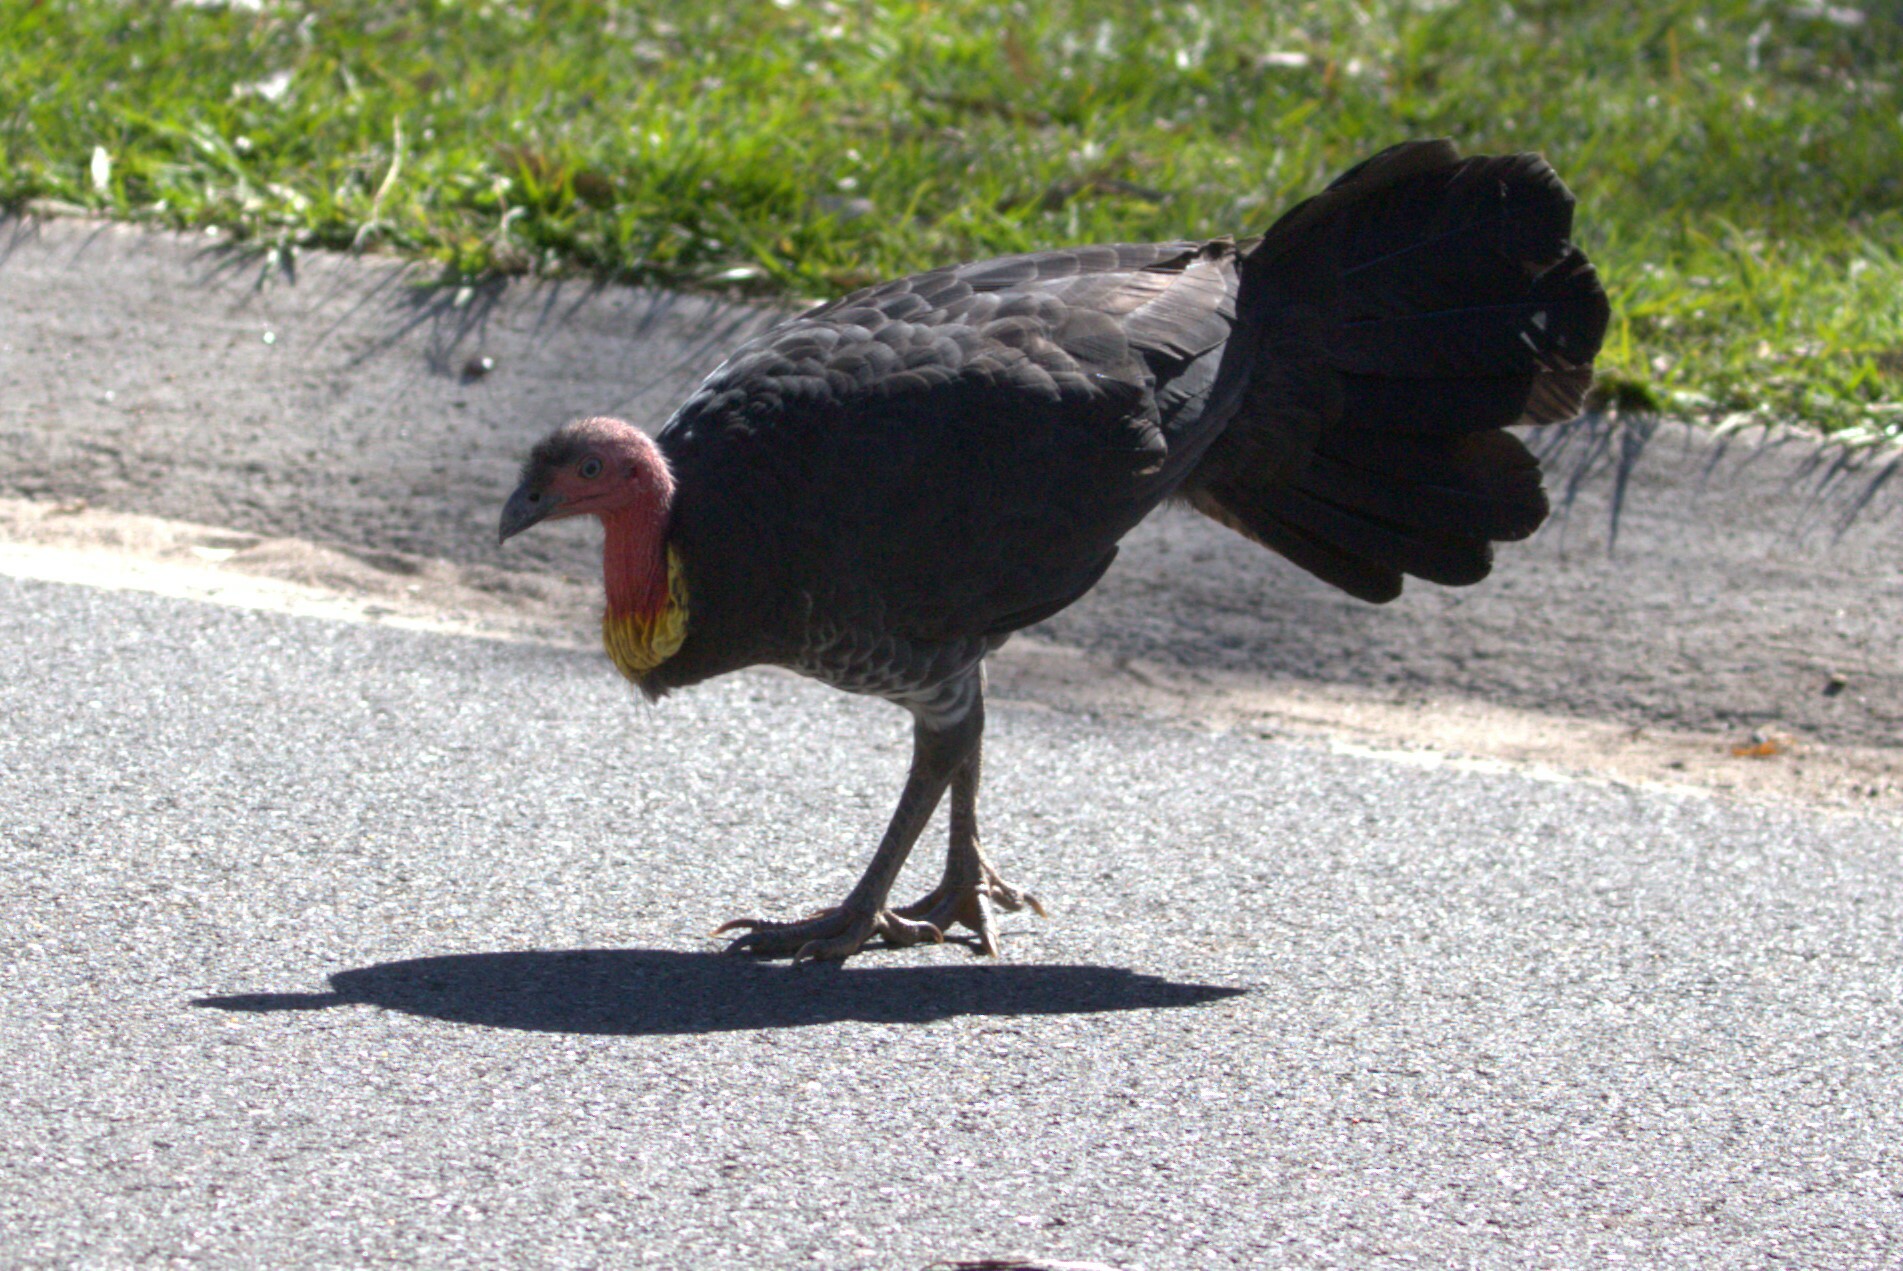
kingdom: Animalia
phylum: Chordata
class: Aves
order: Galliformes
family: Megapodiidae
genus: Alectura
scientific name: Alectura lathami
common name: Australian brushturkey
